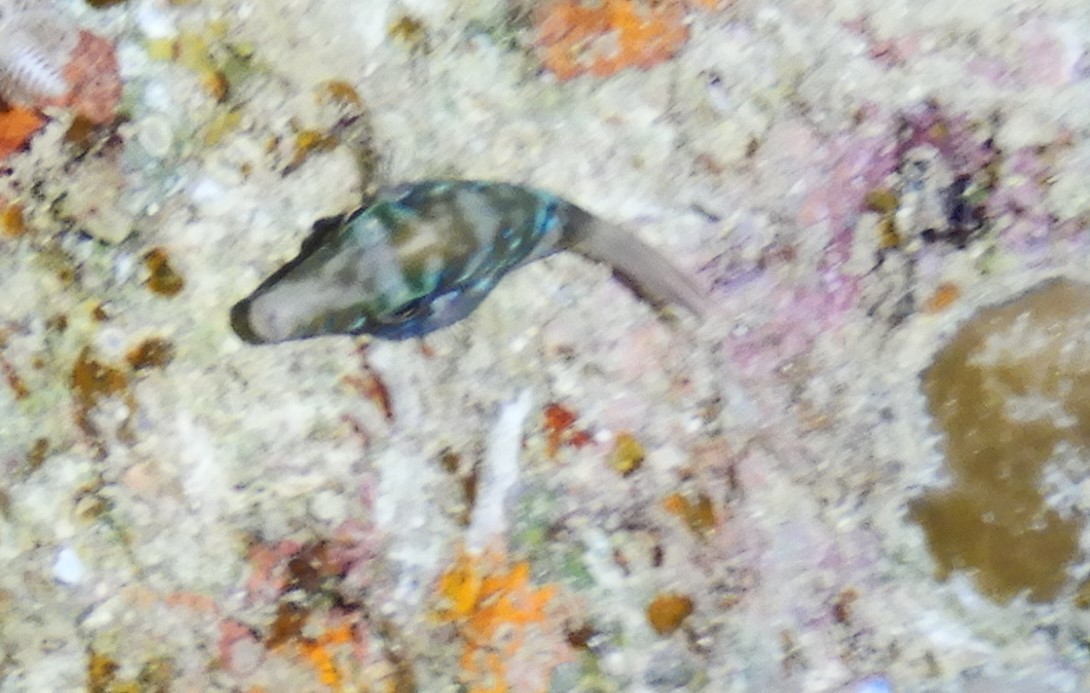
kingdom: Animalia
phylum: Chordata
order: Tetraodontiformes
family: Tetraodontidae
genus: Canthigaster
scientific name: Canthigaster pygmaea
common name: Pygmy toby
